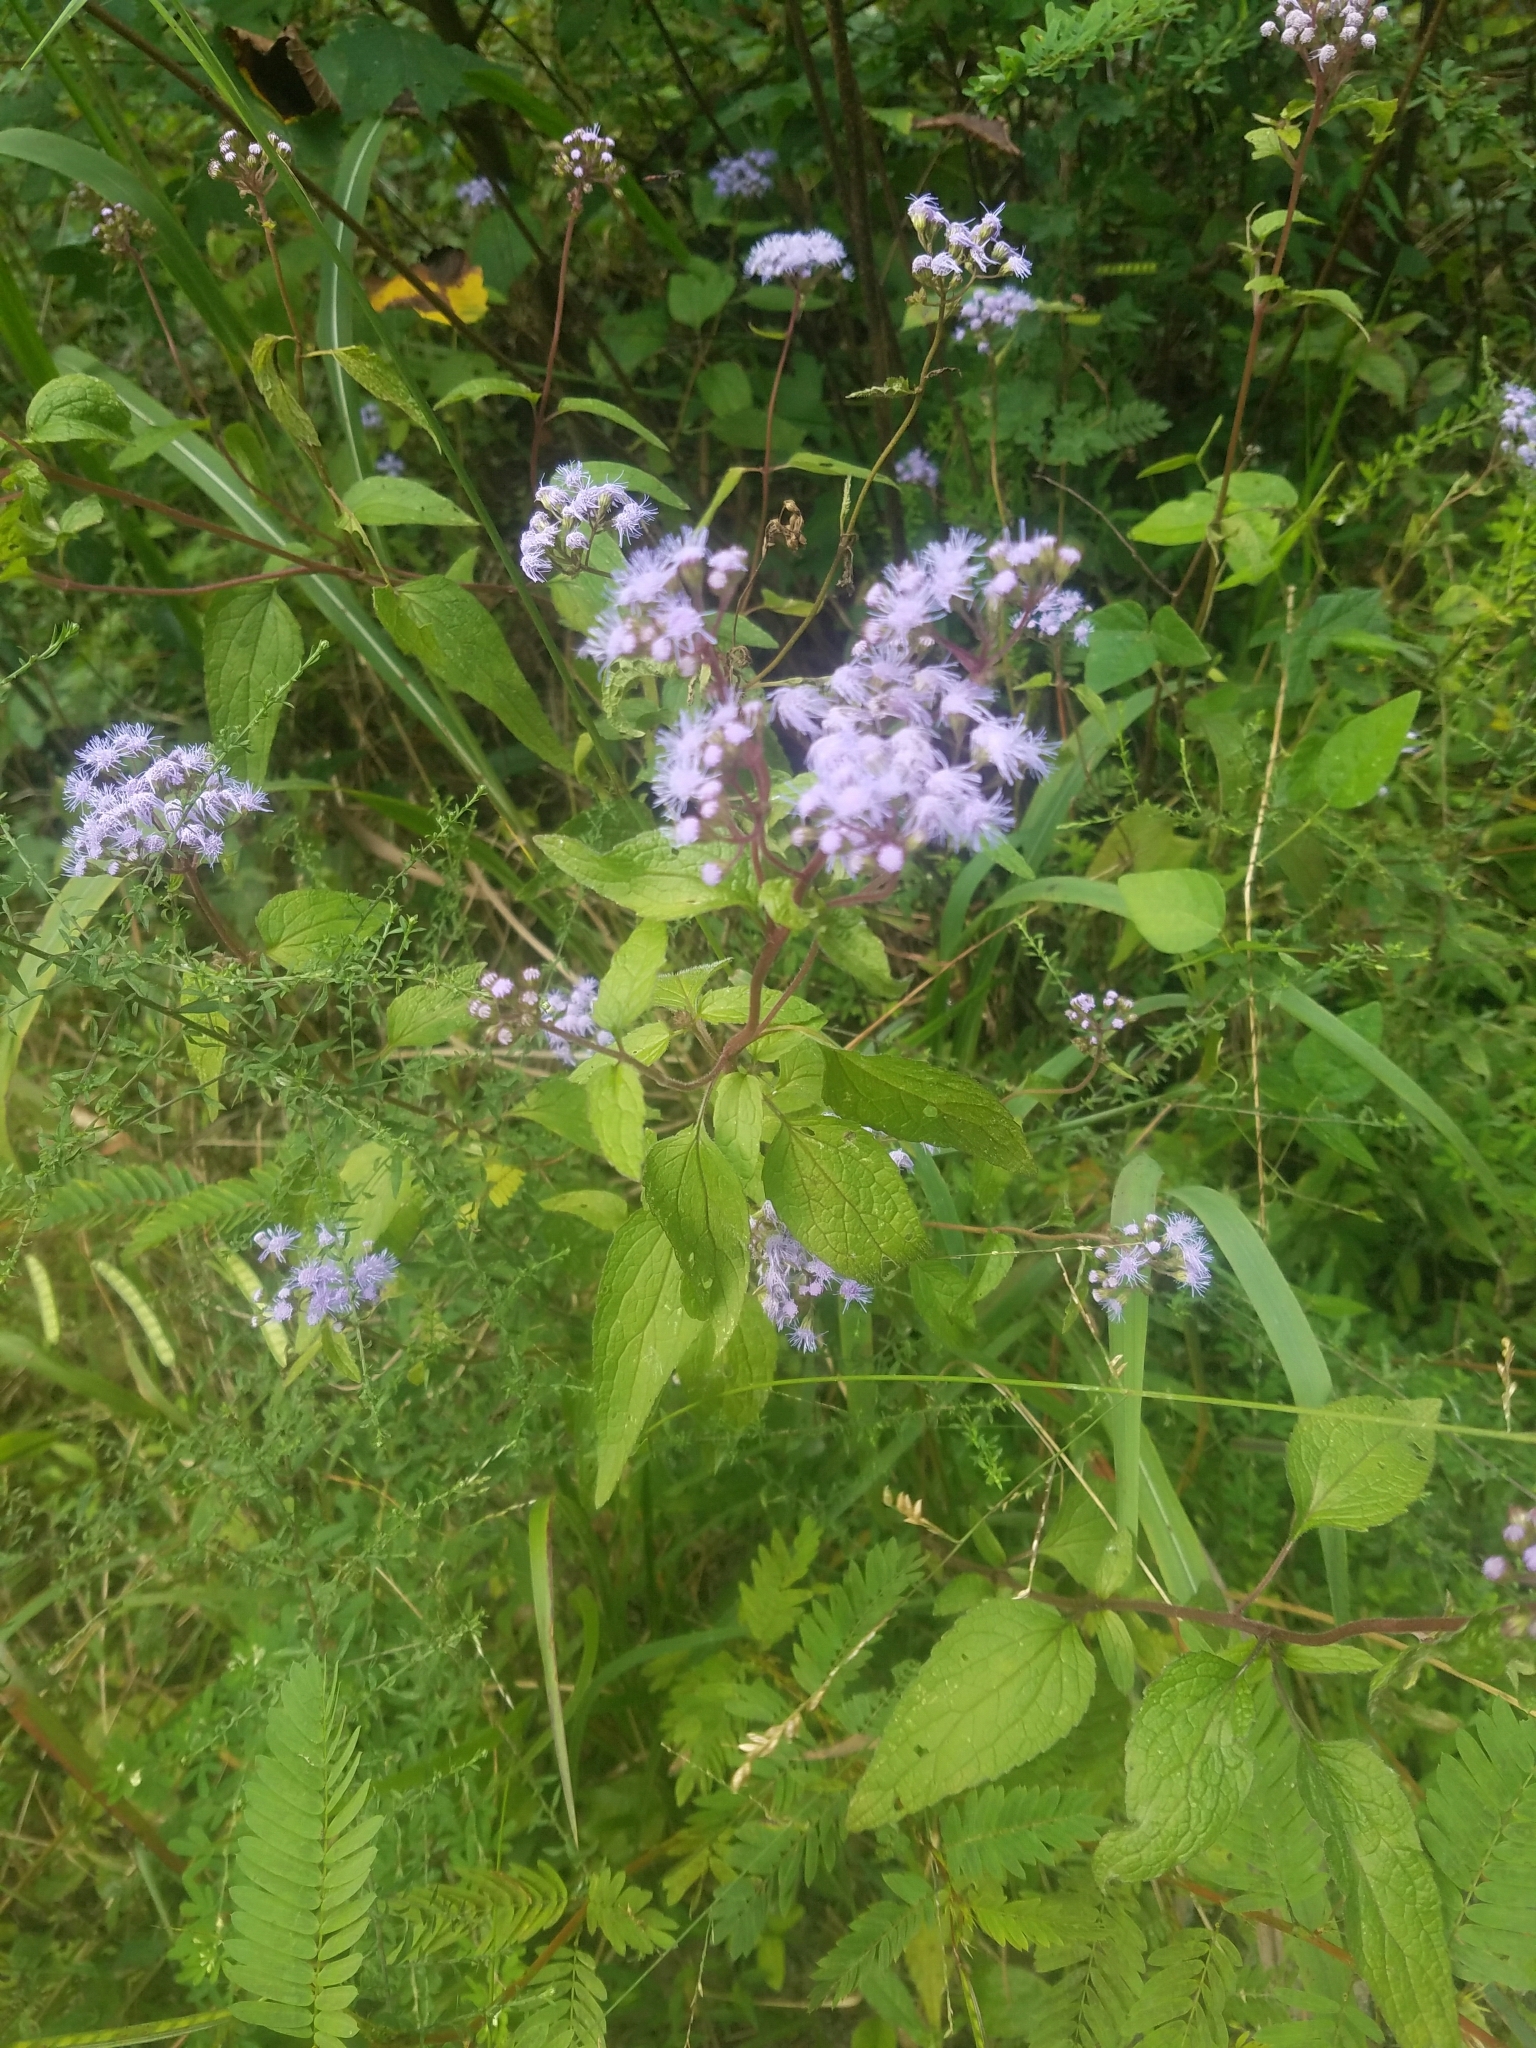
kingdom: Plantae
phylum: Tracheophyta
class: Magnoliopsida
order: Asterales
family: Asteraceae
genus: Conoclinium
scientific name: Conoclinium coelestinum
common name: Blue mistflower
